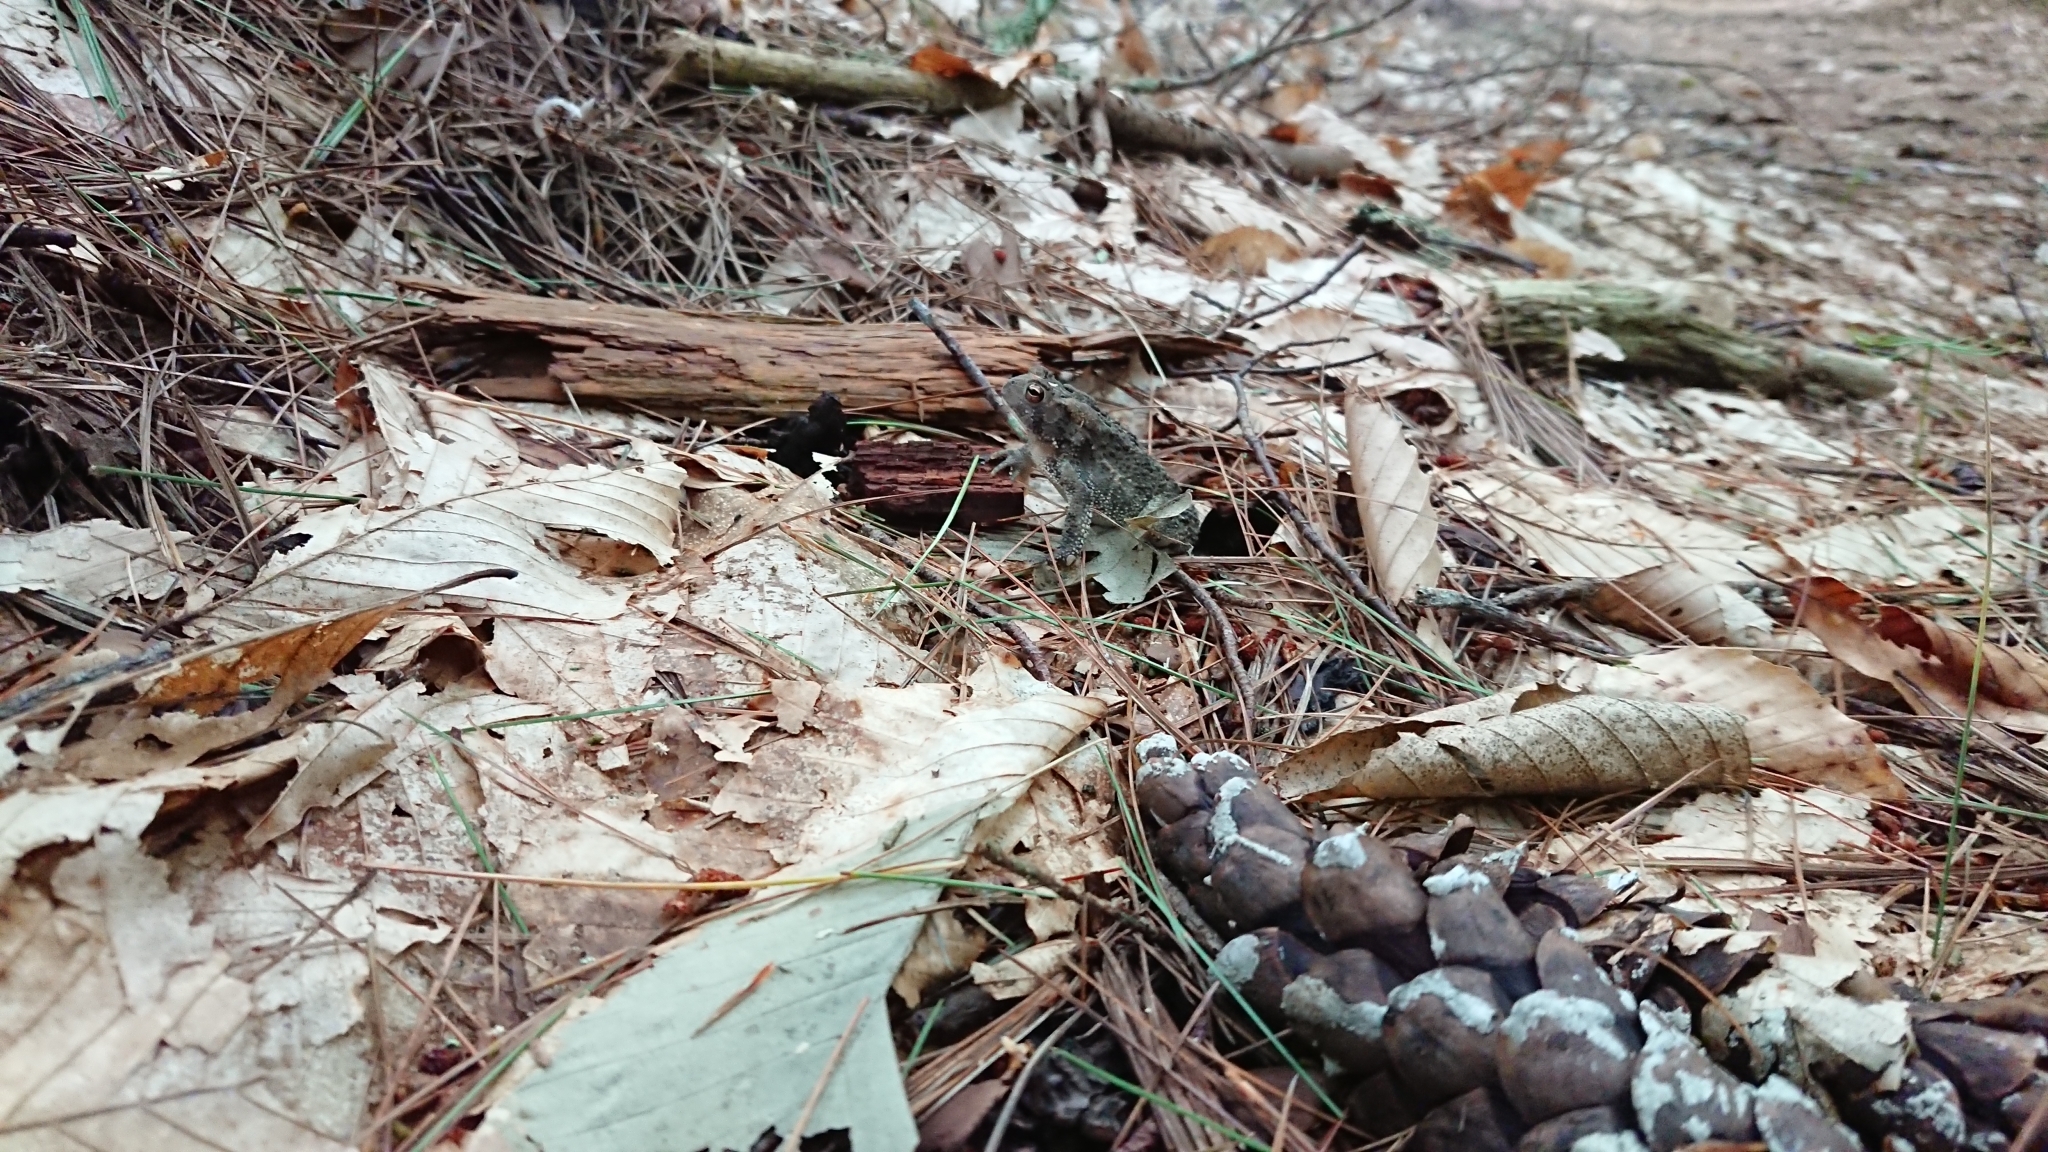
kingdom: Animalia
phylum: Chordata
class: Amphibia
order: Anura
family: Bufonidae
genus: Anaxyrus
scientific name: Anaxyrus americanus
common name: American toad
